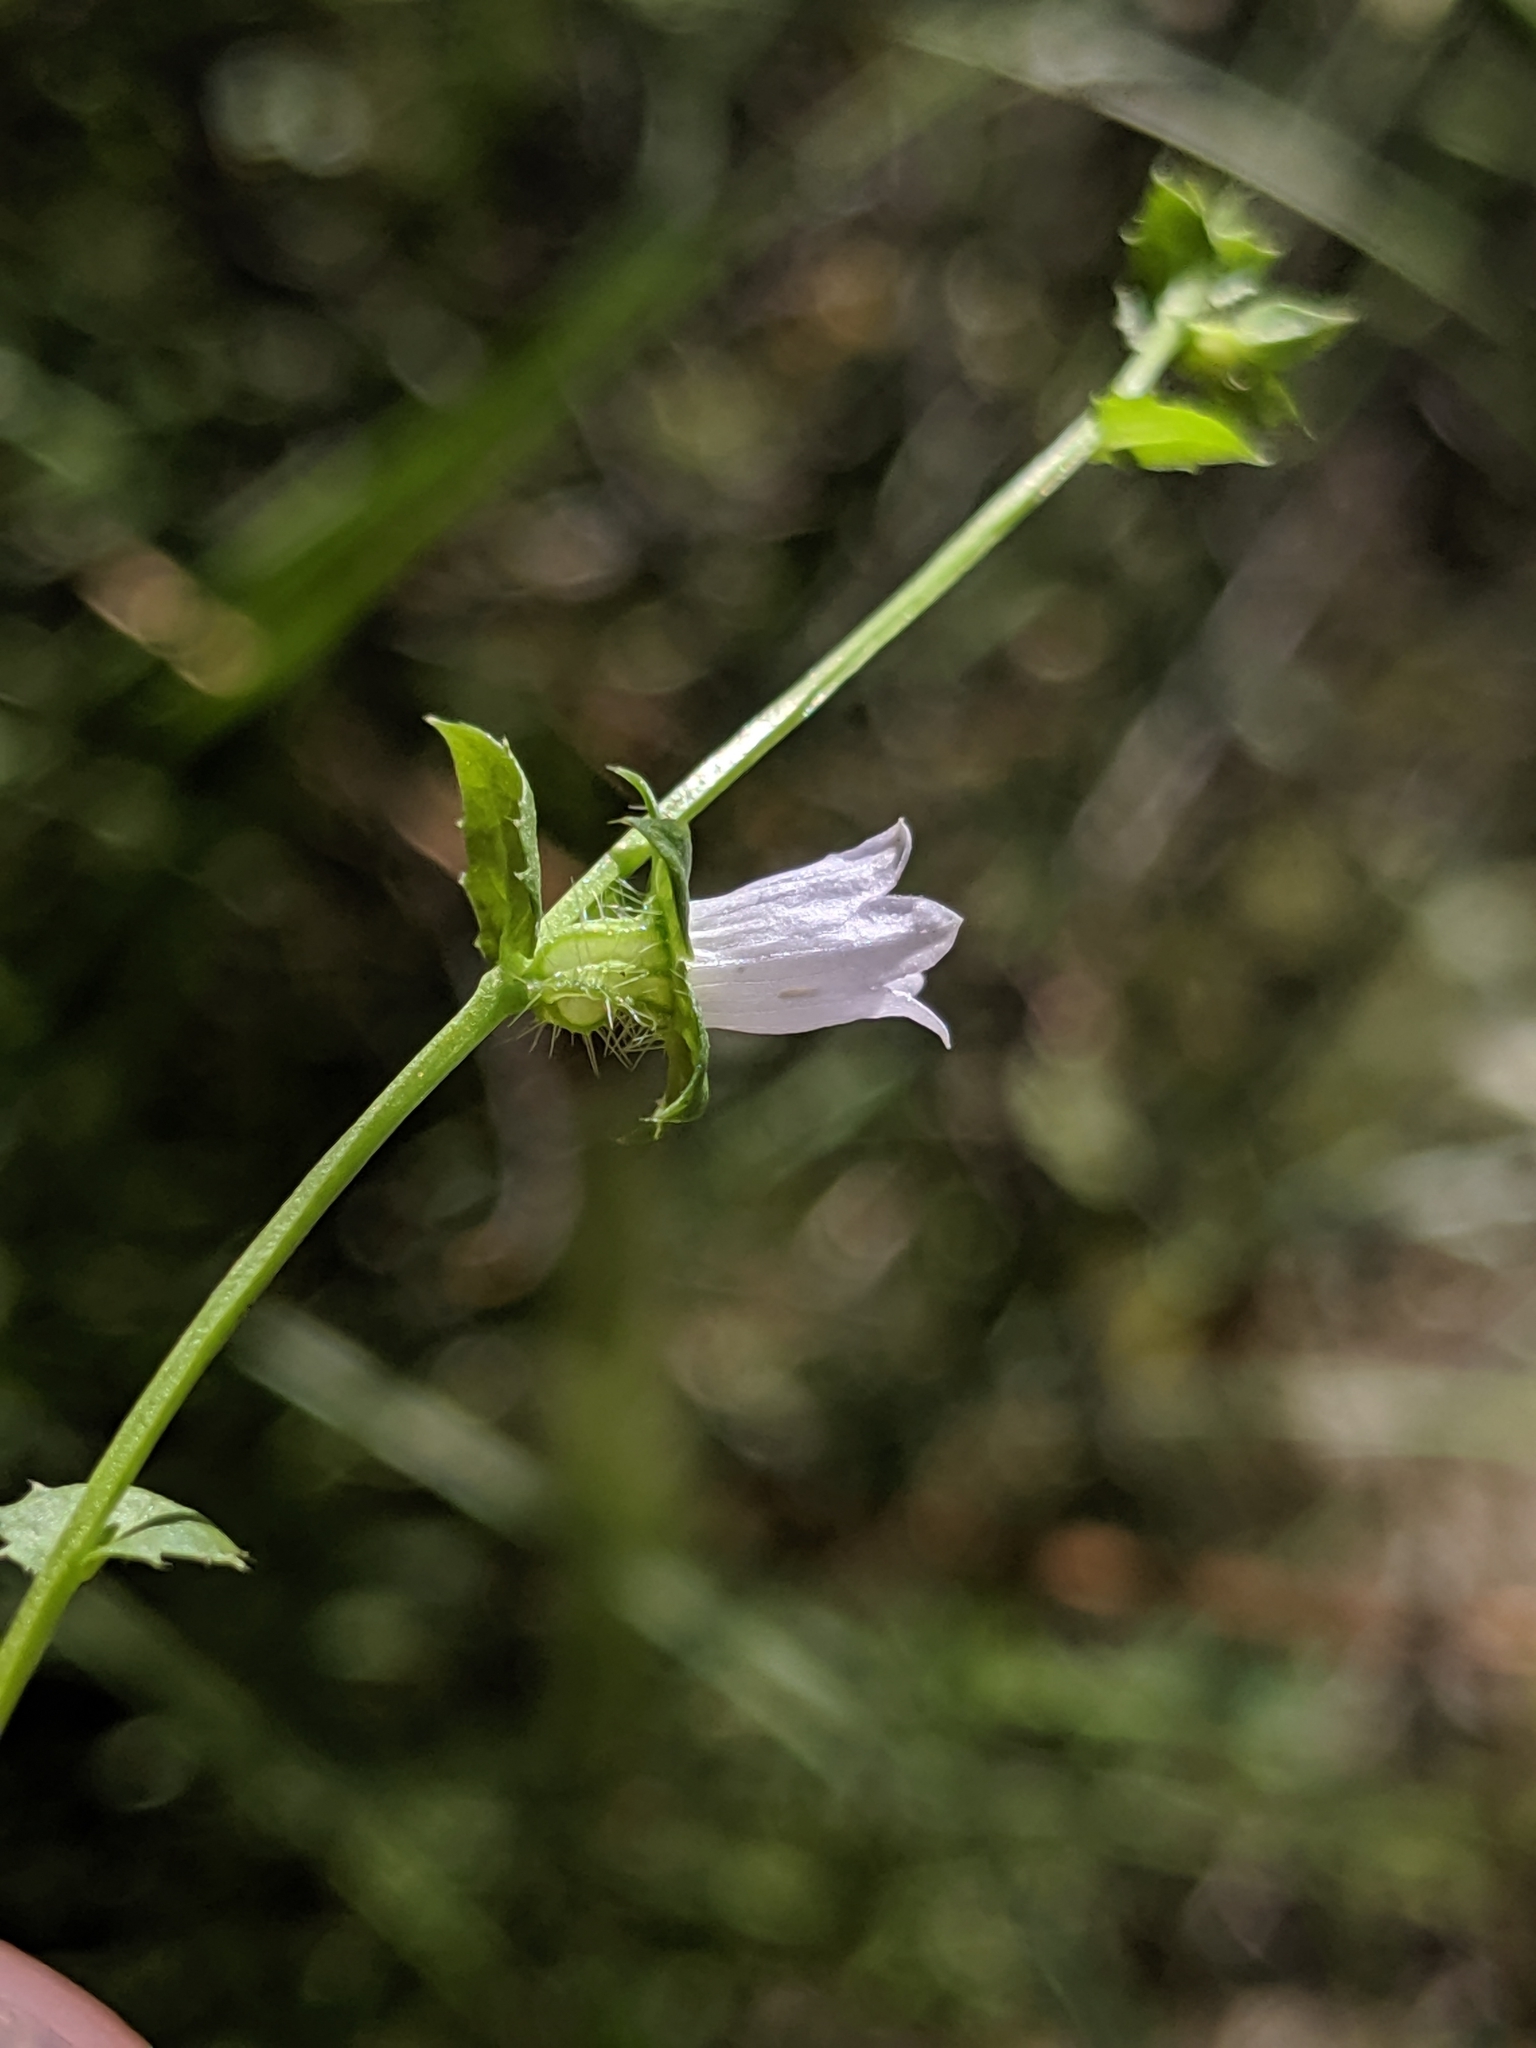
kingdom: Plantae
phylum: Tracheophyta
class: Magnoliopsida
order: Asterales
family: Campanulaceae
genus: Heterocodon
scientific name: Heterocodon rariflorum
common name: Rareflower heterocodon
